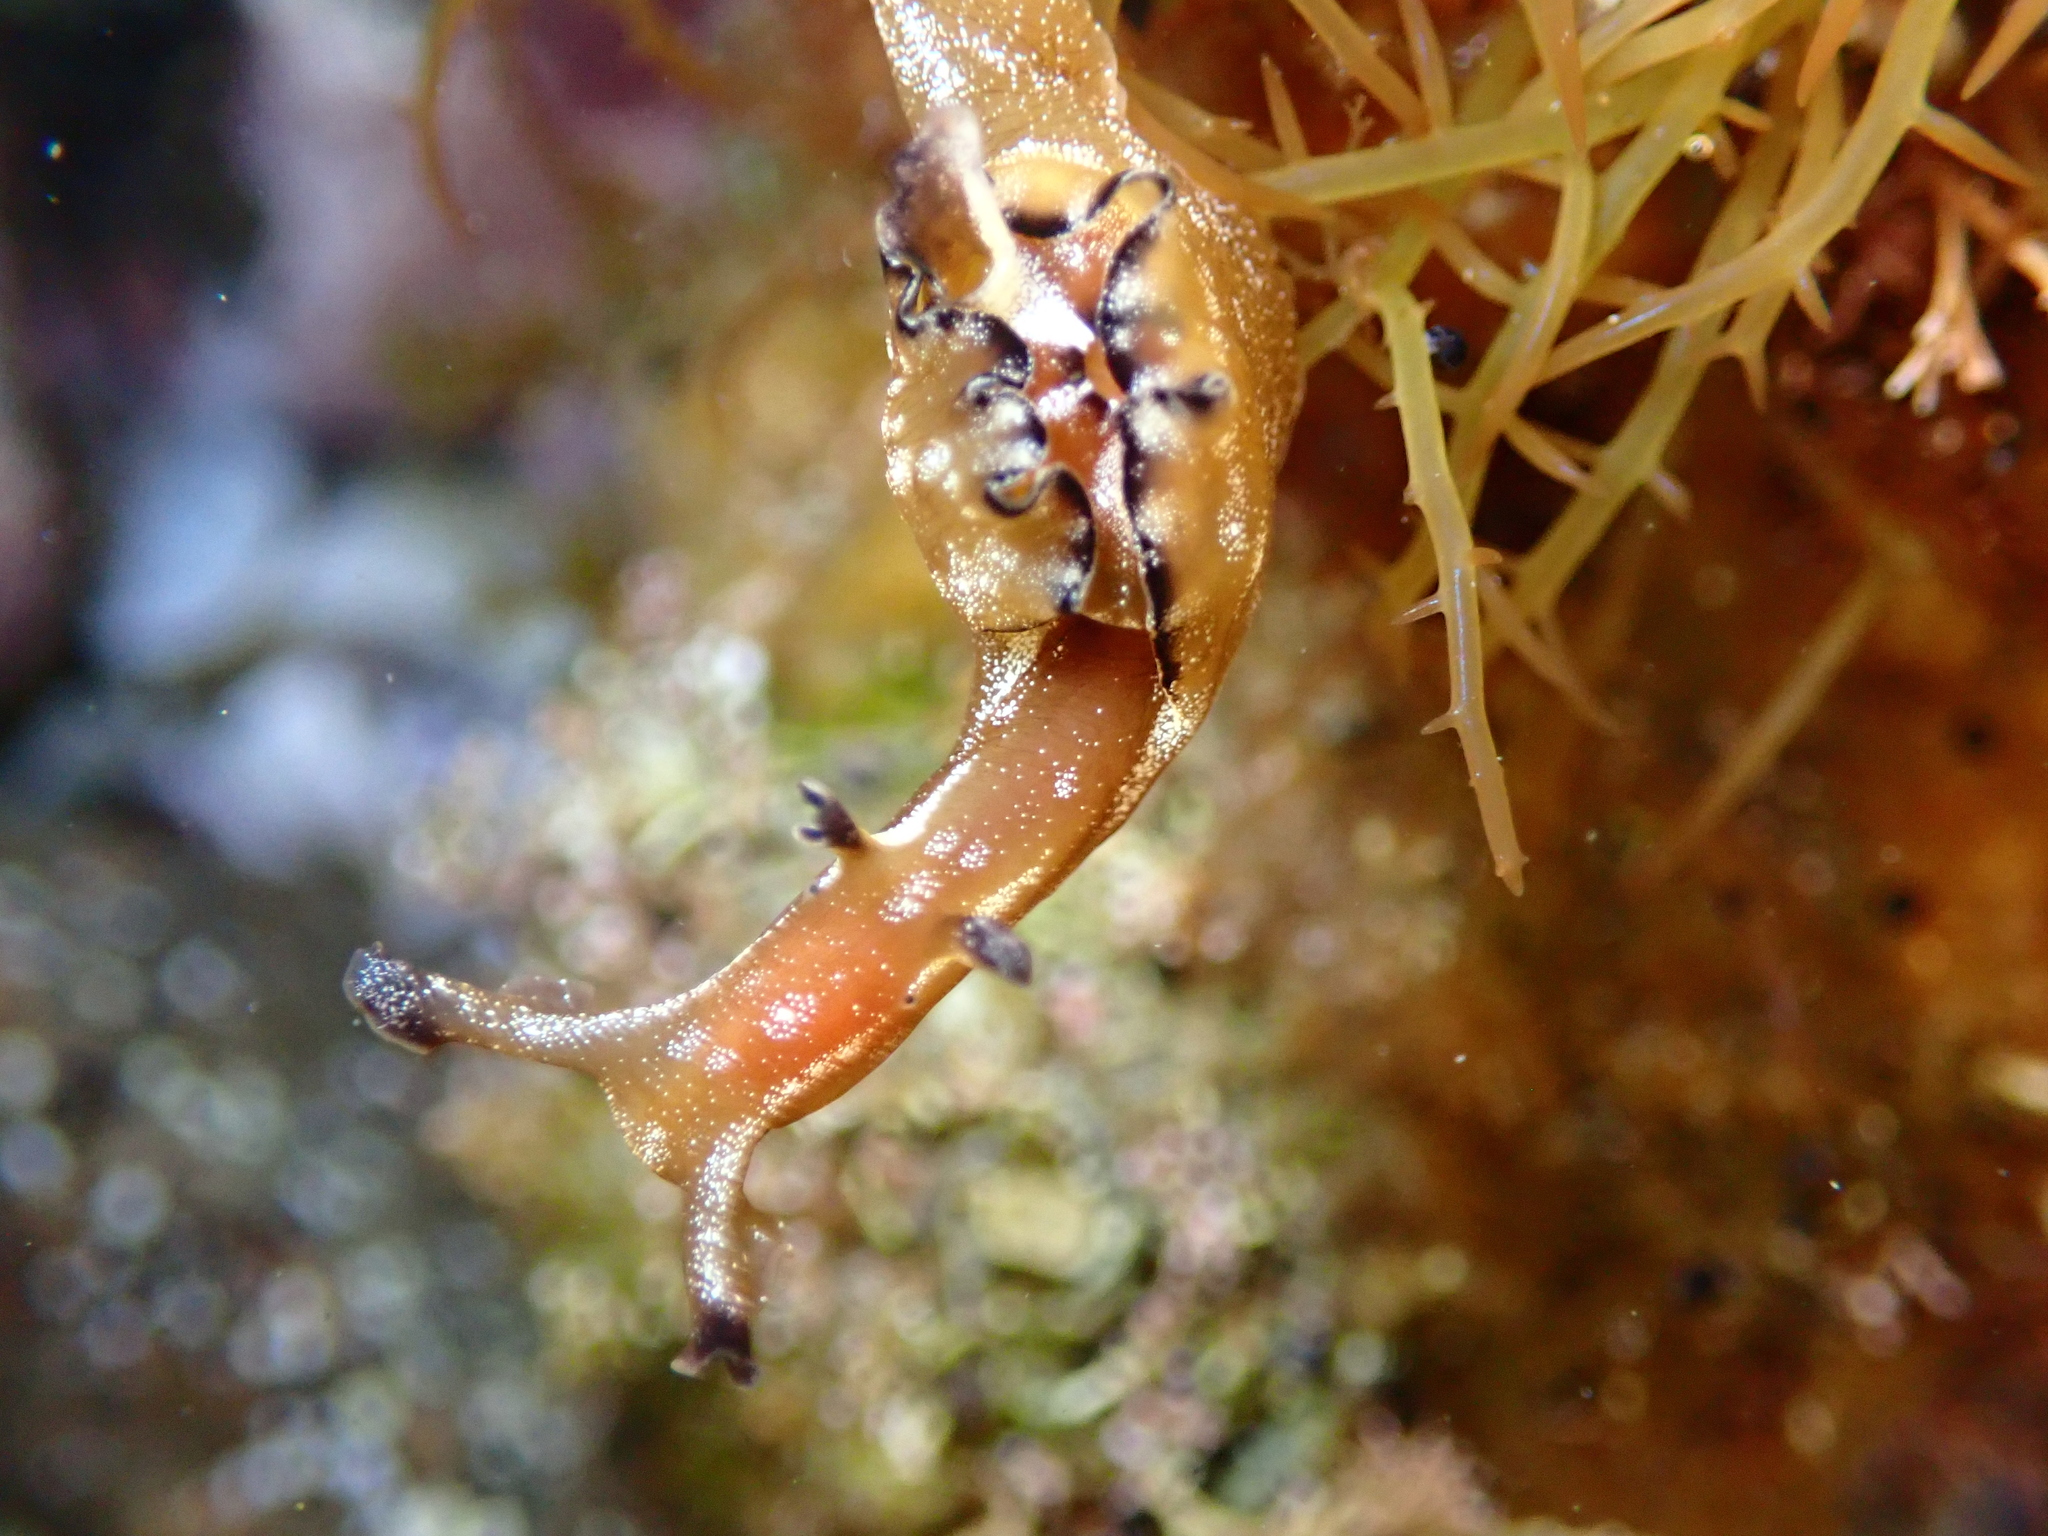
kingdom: Animalia
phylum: Mollusca
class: Gastropoda
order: Aplysiida
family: Aplysiidae
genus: Aplysia
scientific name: Aplysia concava
